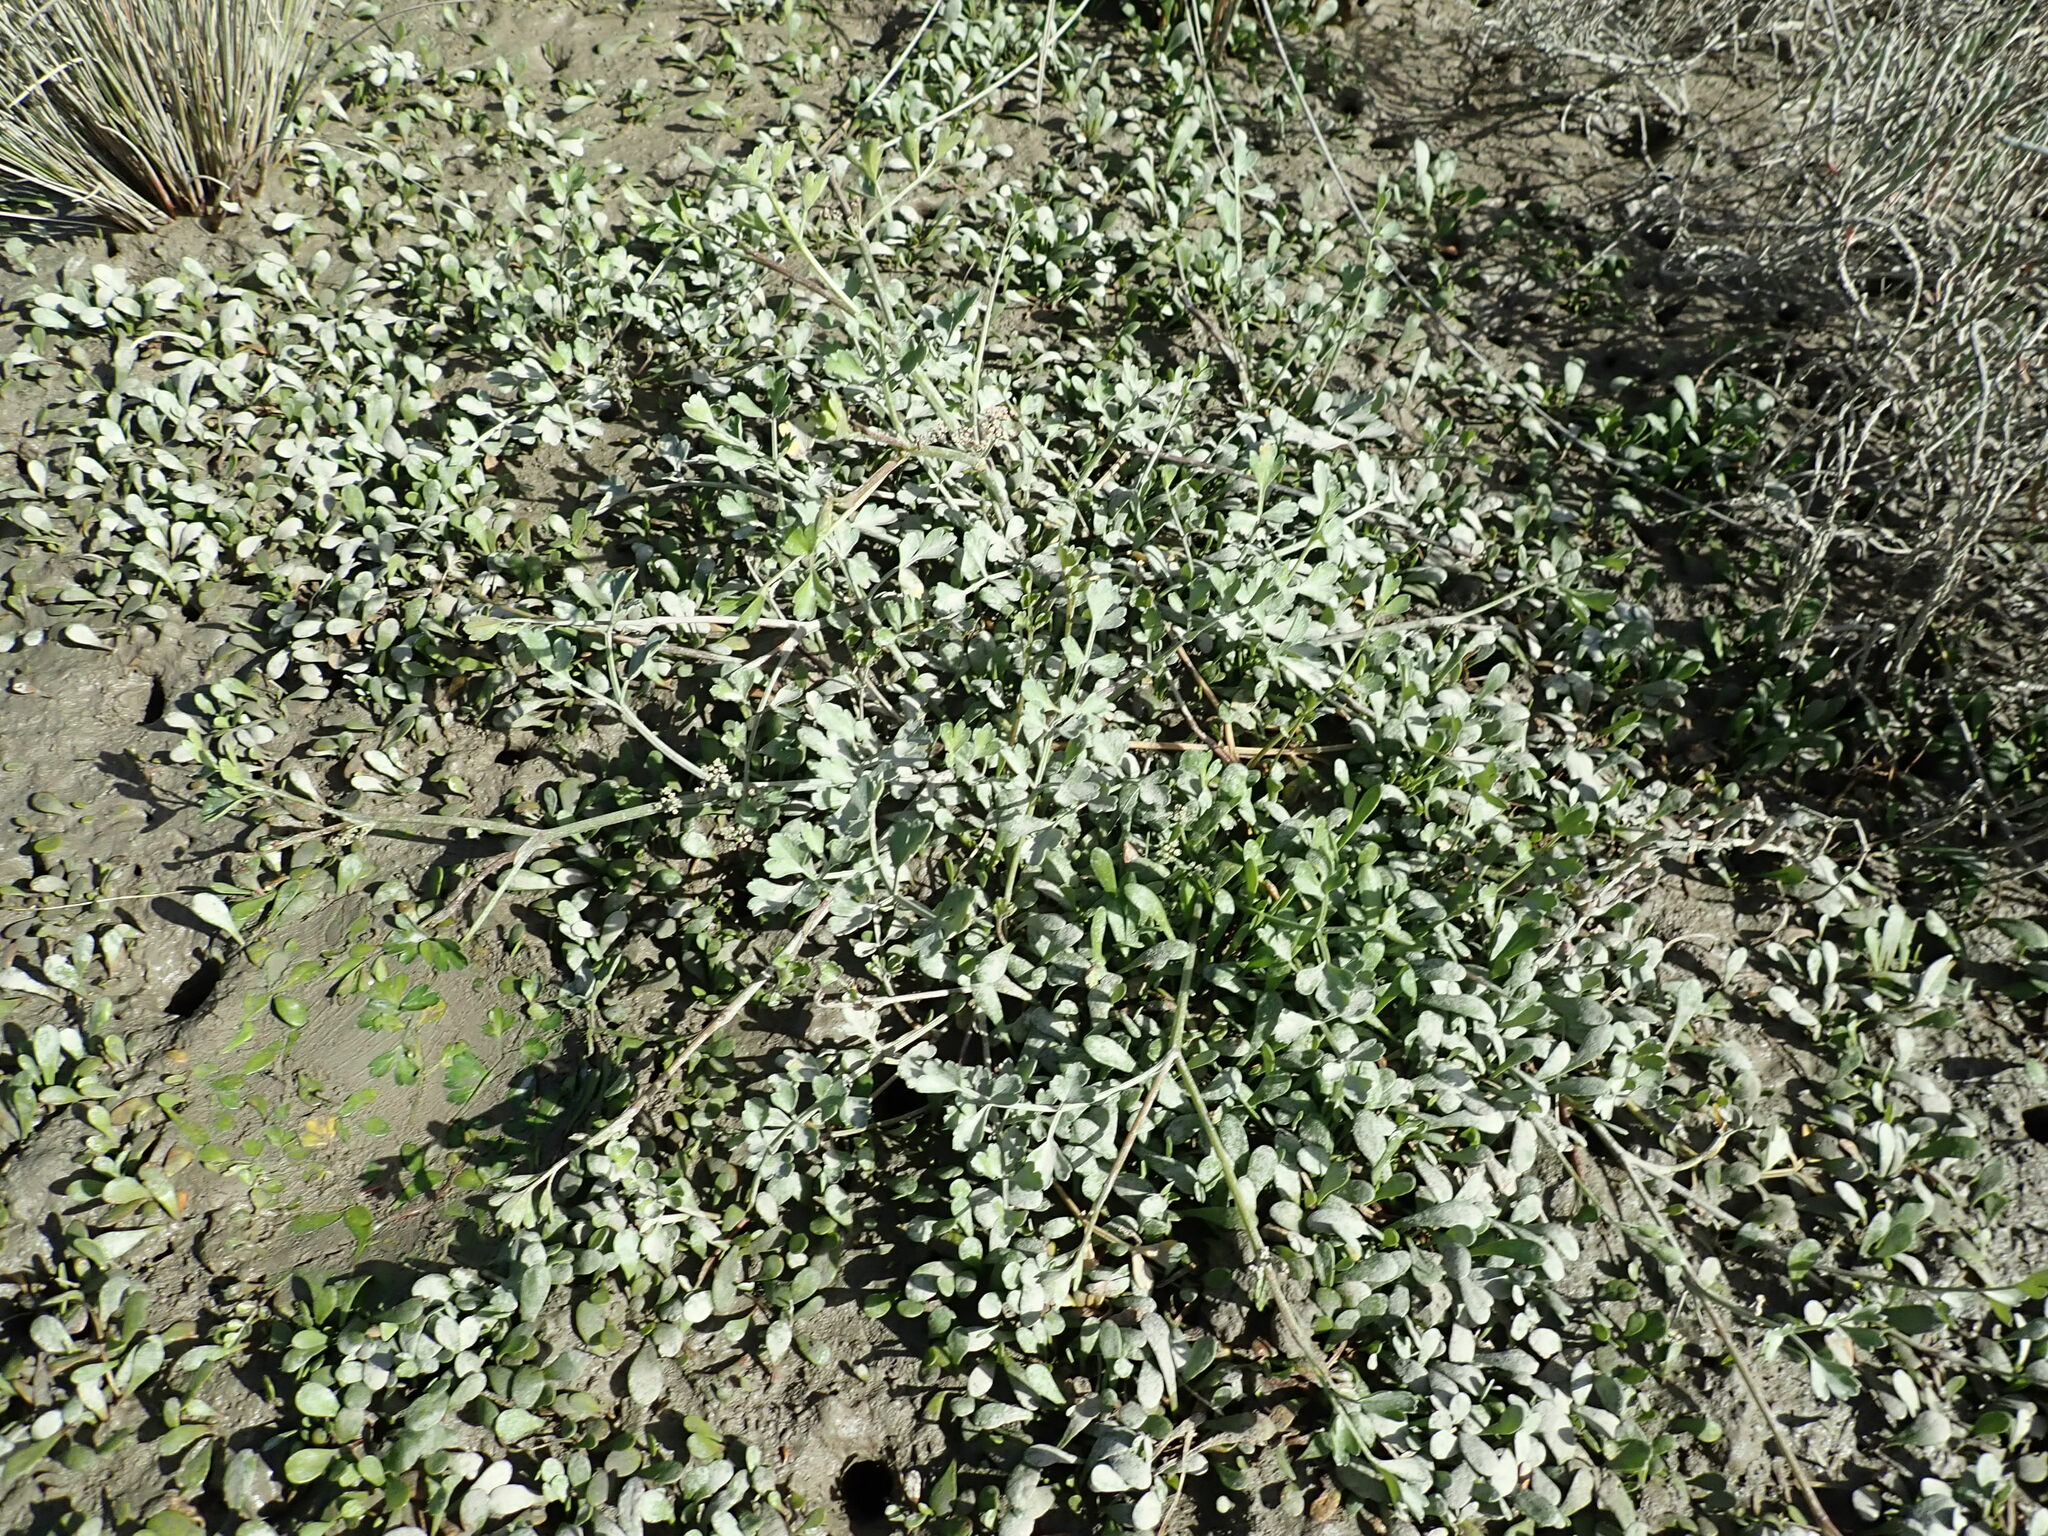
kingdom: Plantae
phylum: Tracheophyta
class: Magnoliopsida
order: Apiales
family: Apiaceae
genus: Apium
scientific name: Apium prostratum
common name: Prostrate marshwort
